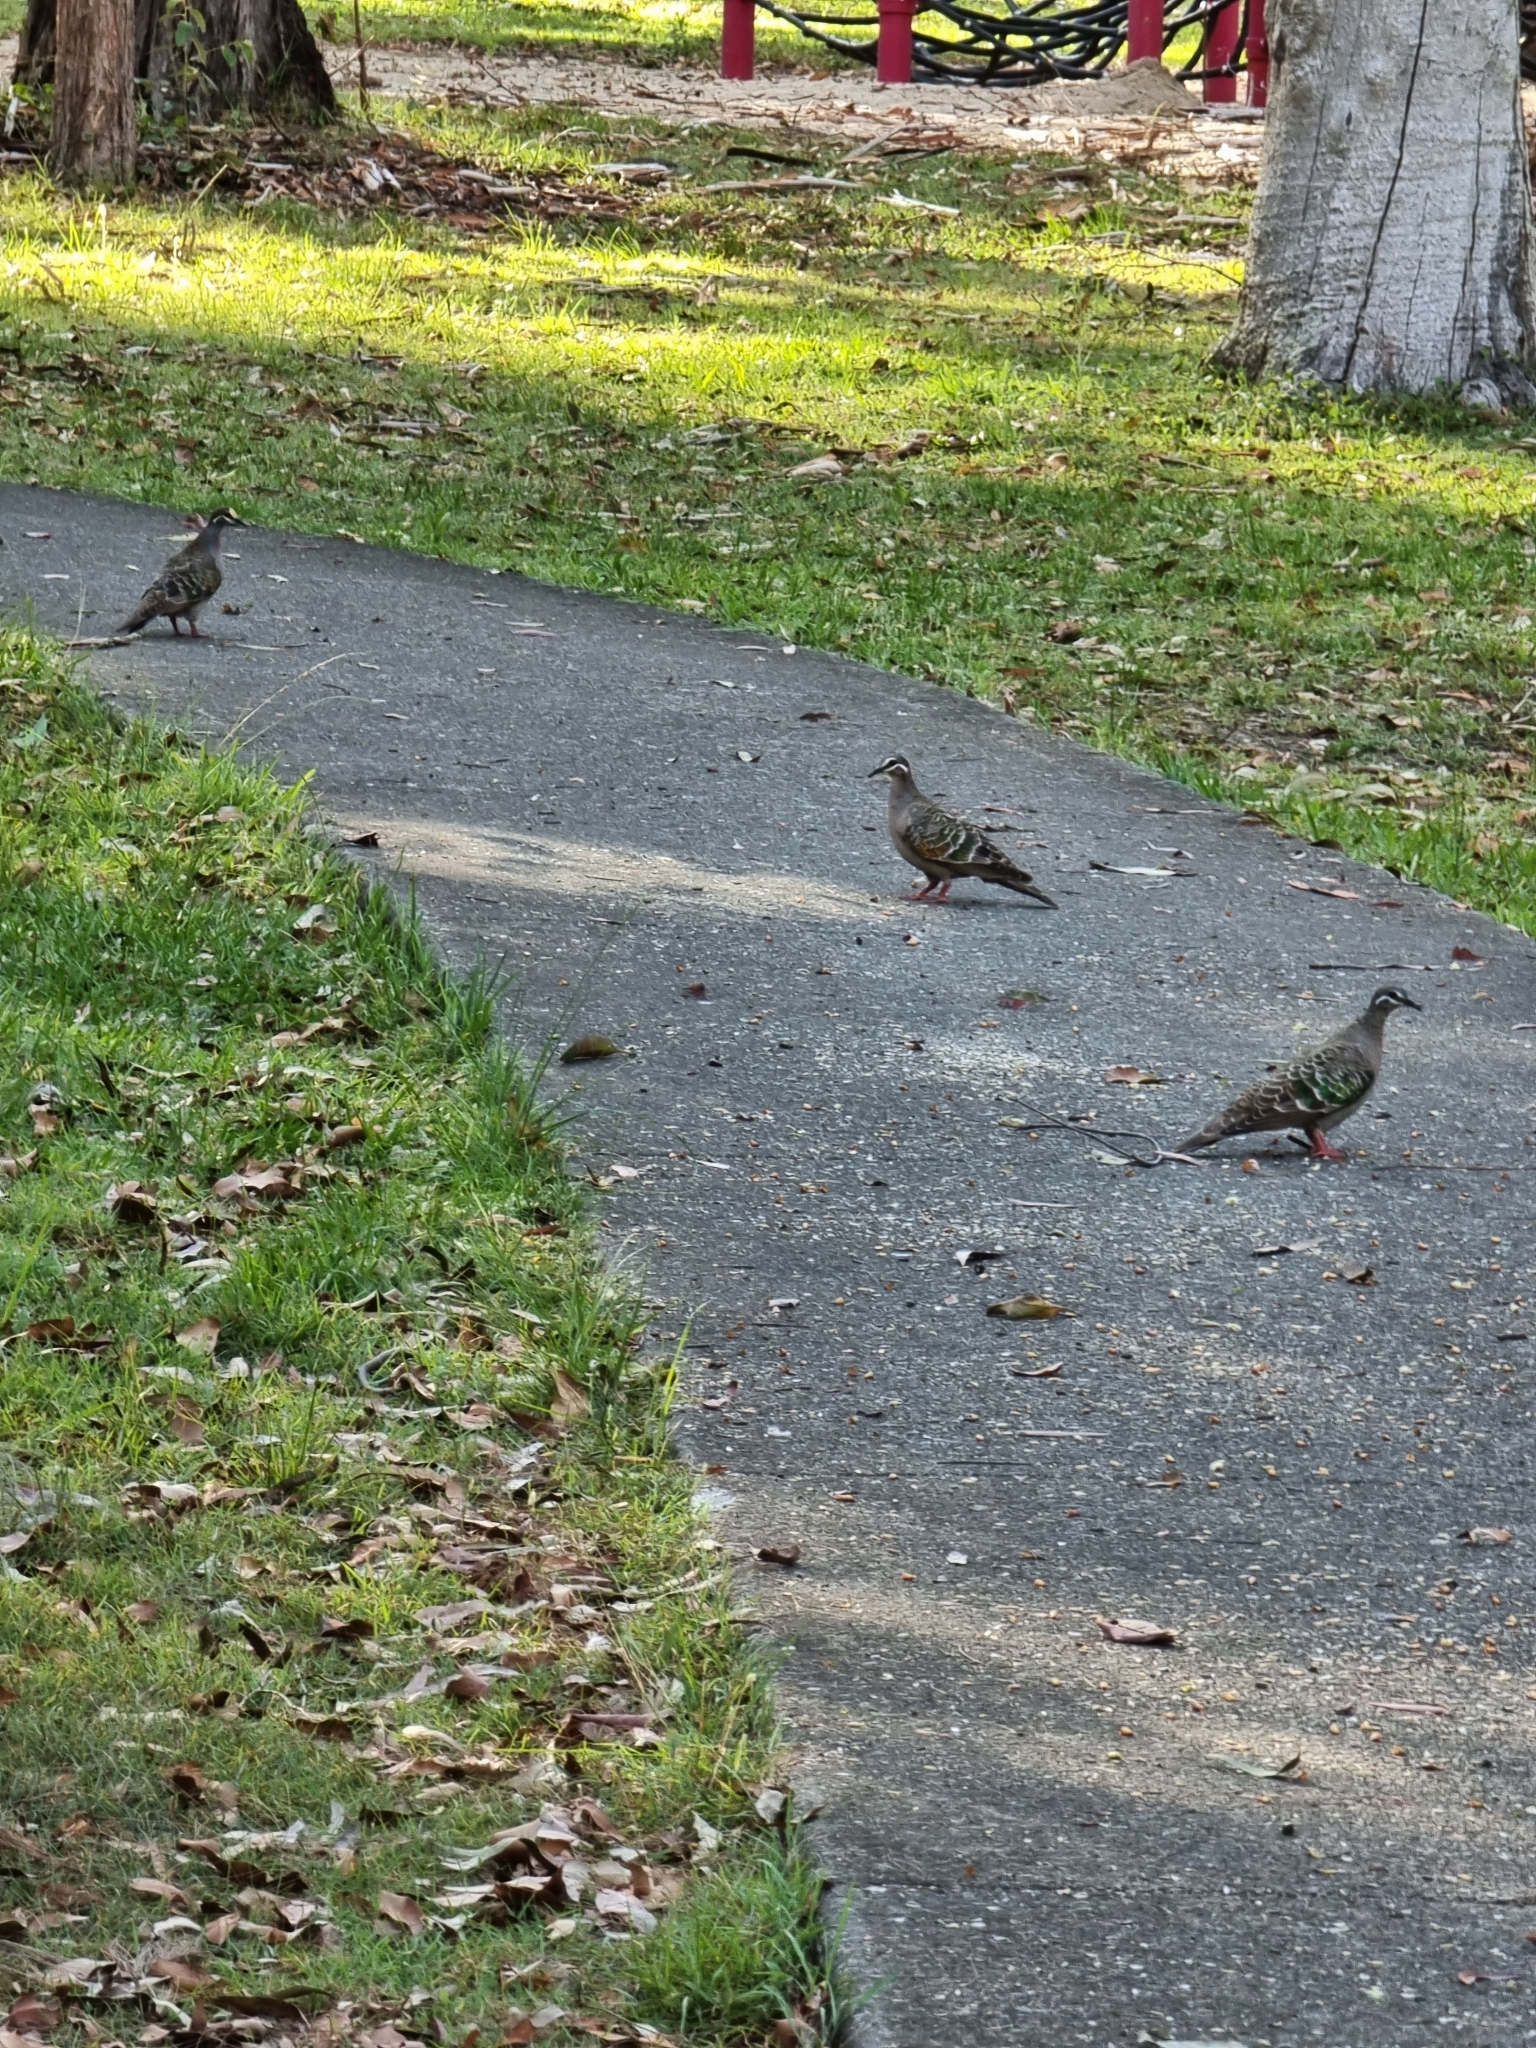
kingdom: Animalia
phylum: Chordata
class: Aves
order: Columbiformes
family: Columbidae
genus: Phaps
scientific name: Phaps chalcoptera
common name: Common bronzewing
